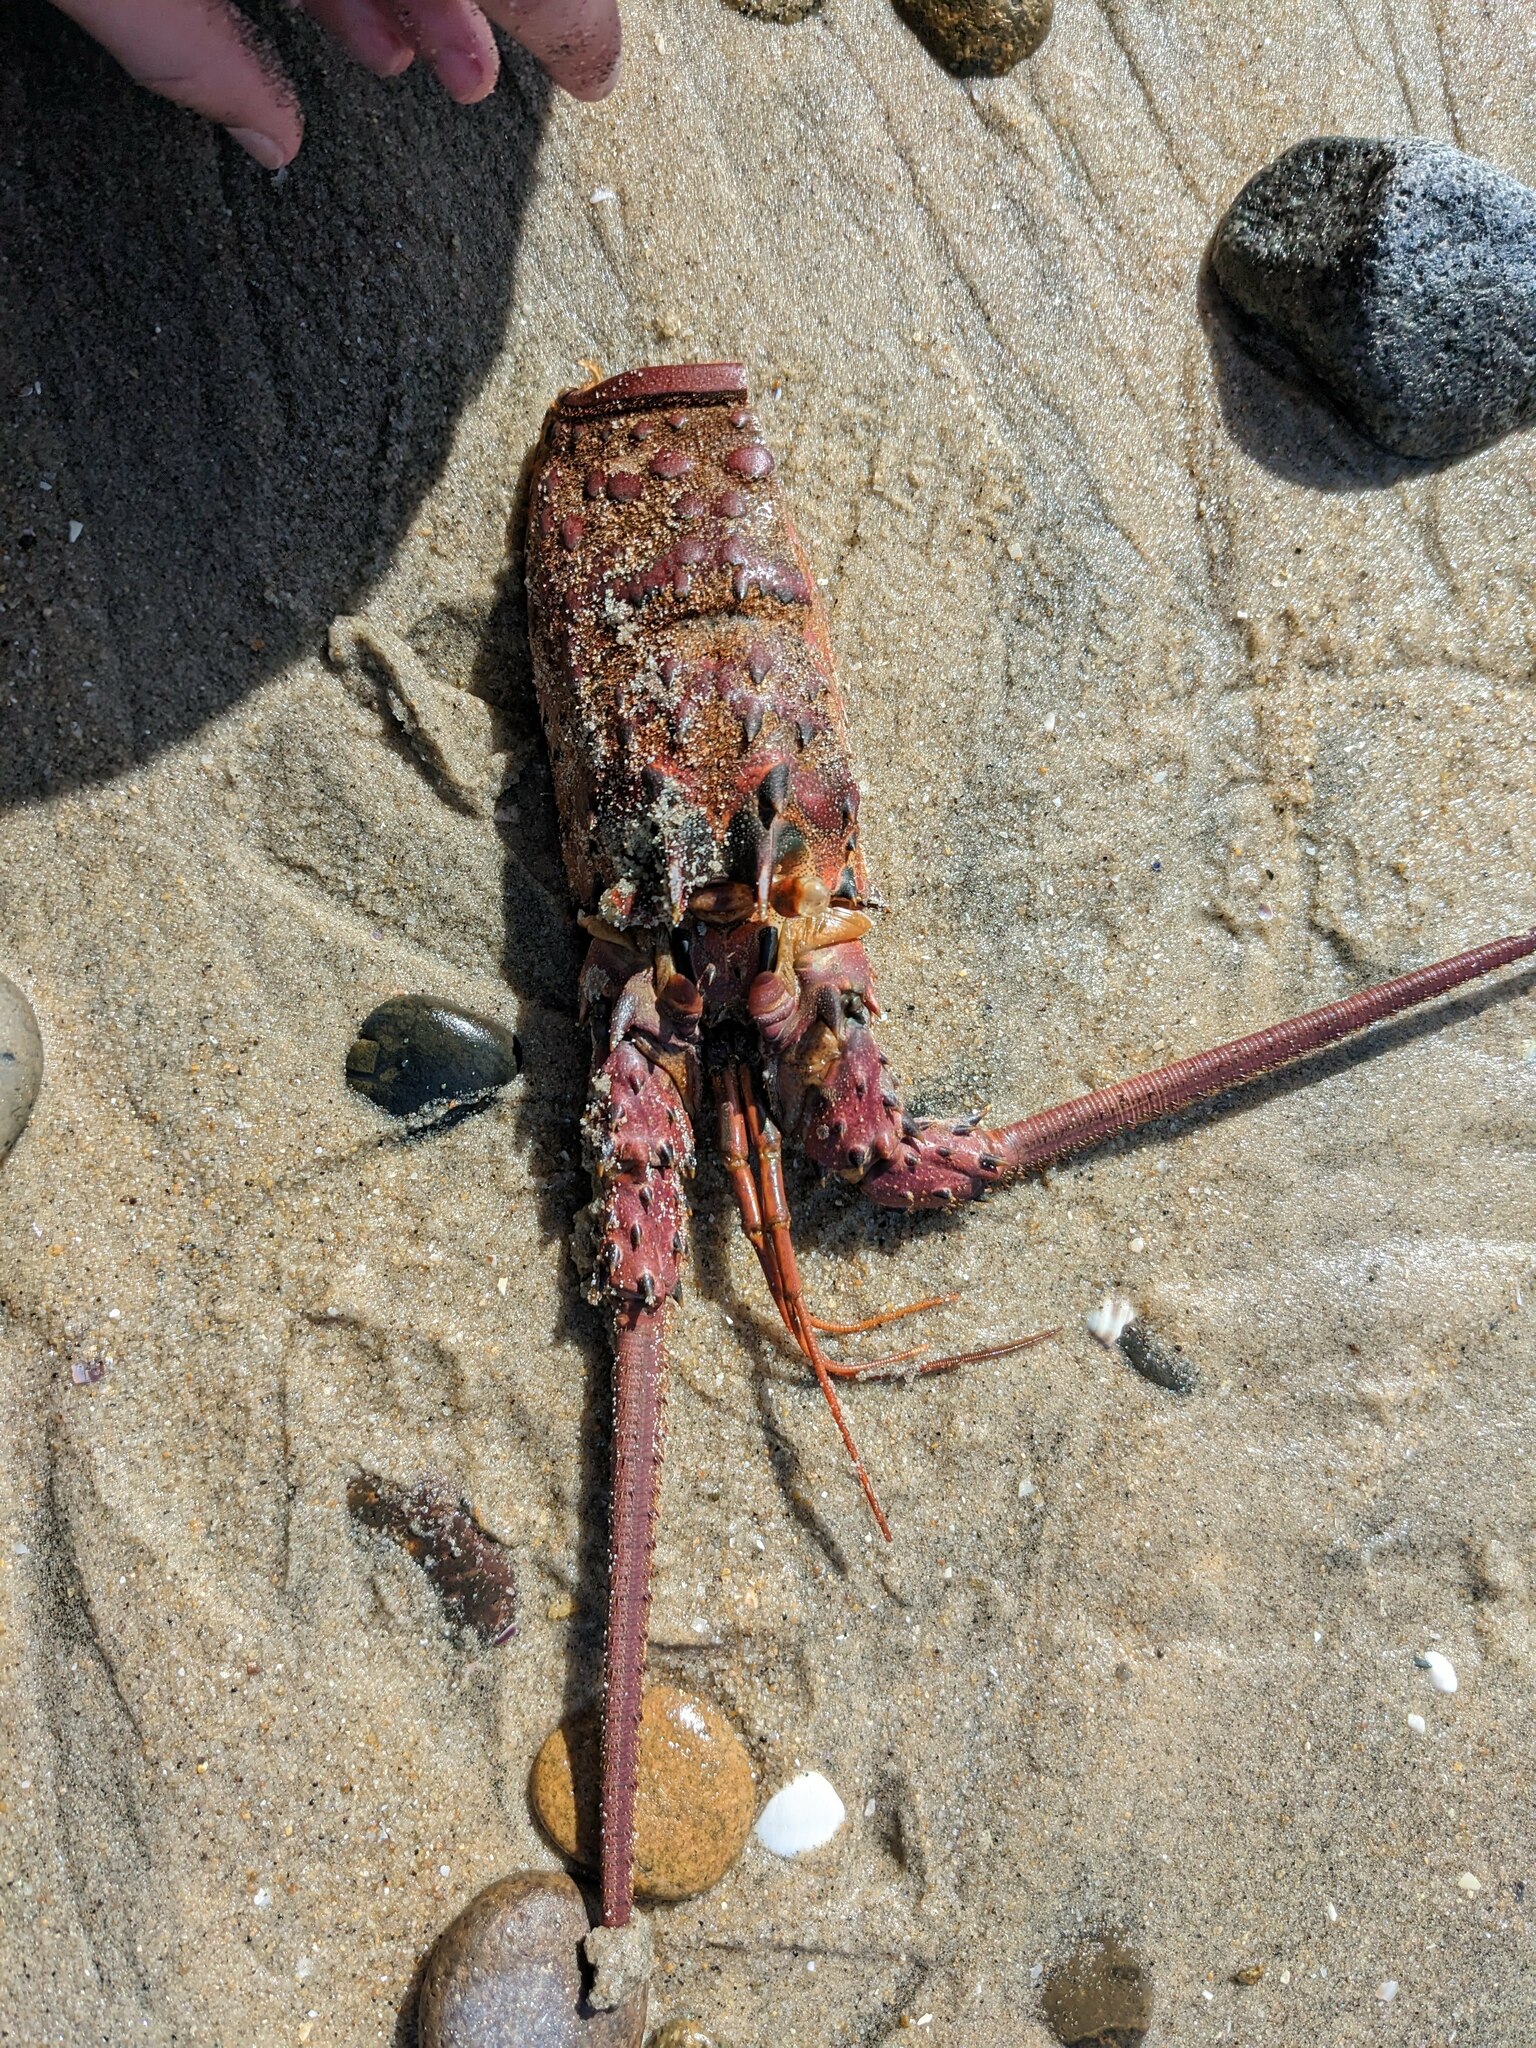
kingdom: Animalia
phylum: Arthropoda
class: Malacostraca
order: Decapoda
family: Palinuridae
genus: Panulirus
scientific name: Panulirus interruptus
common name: California spiny lobster
